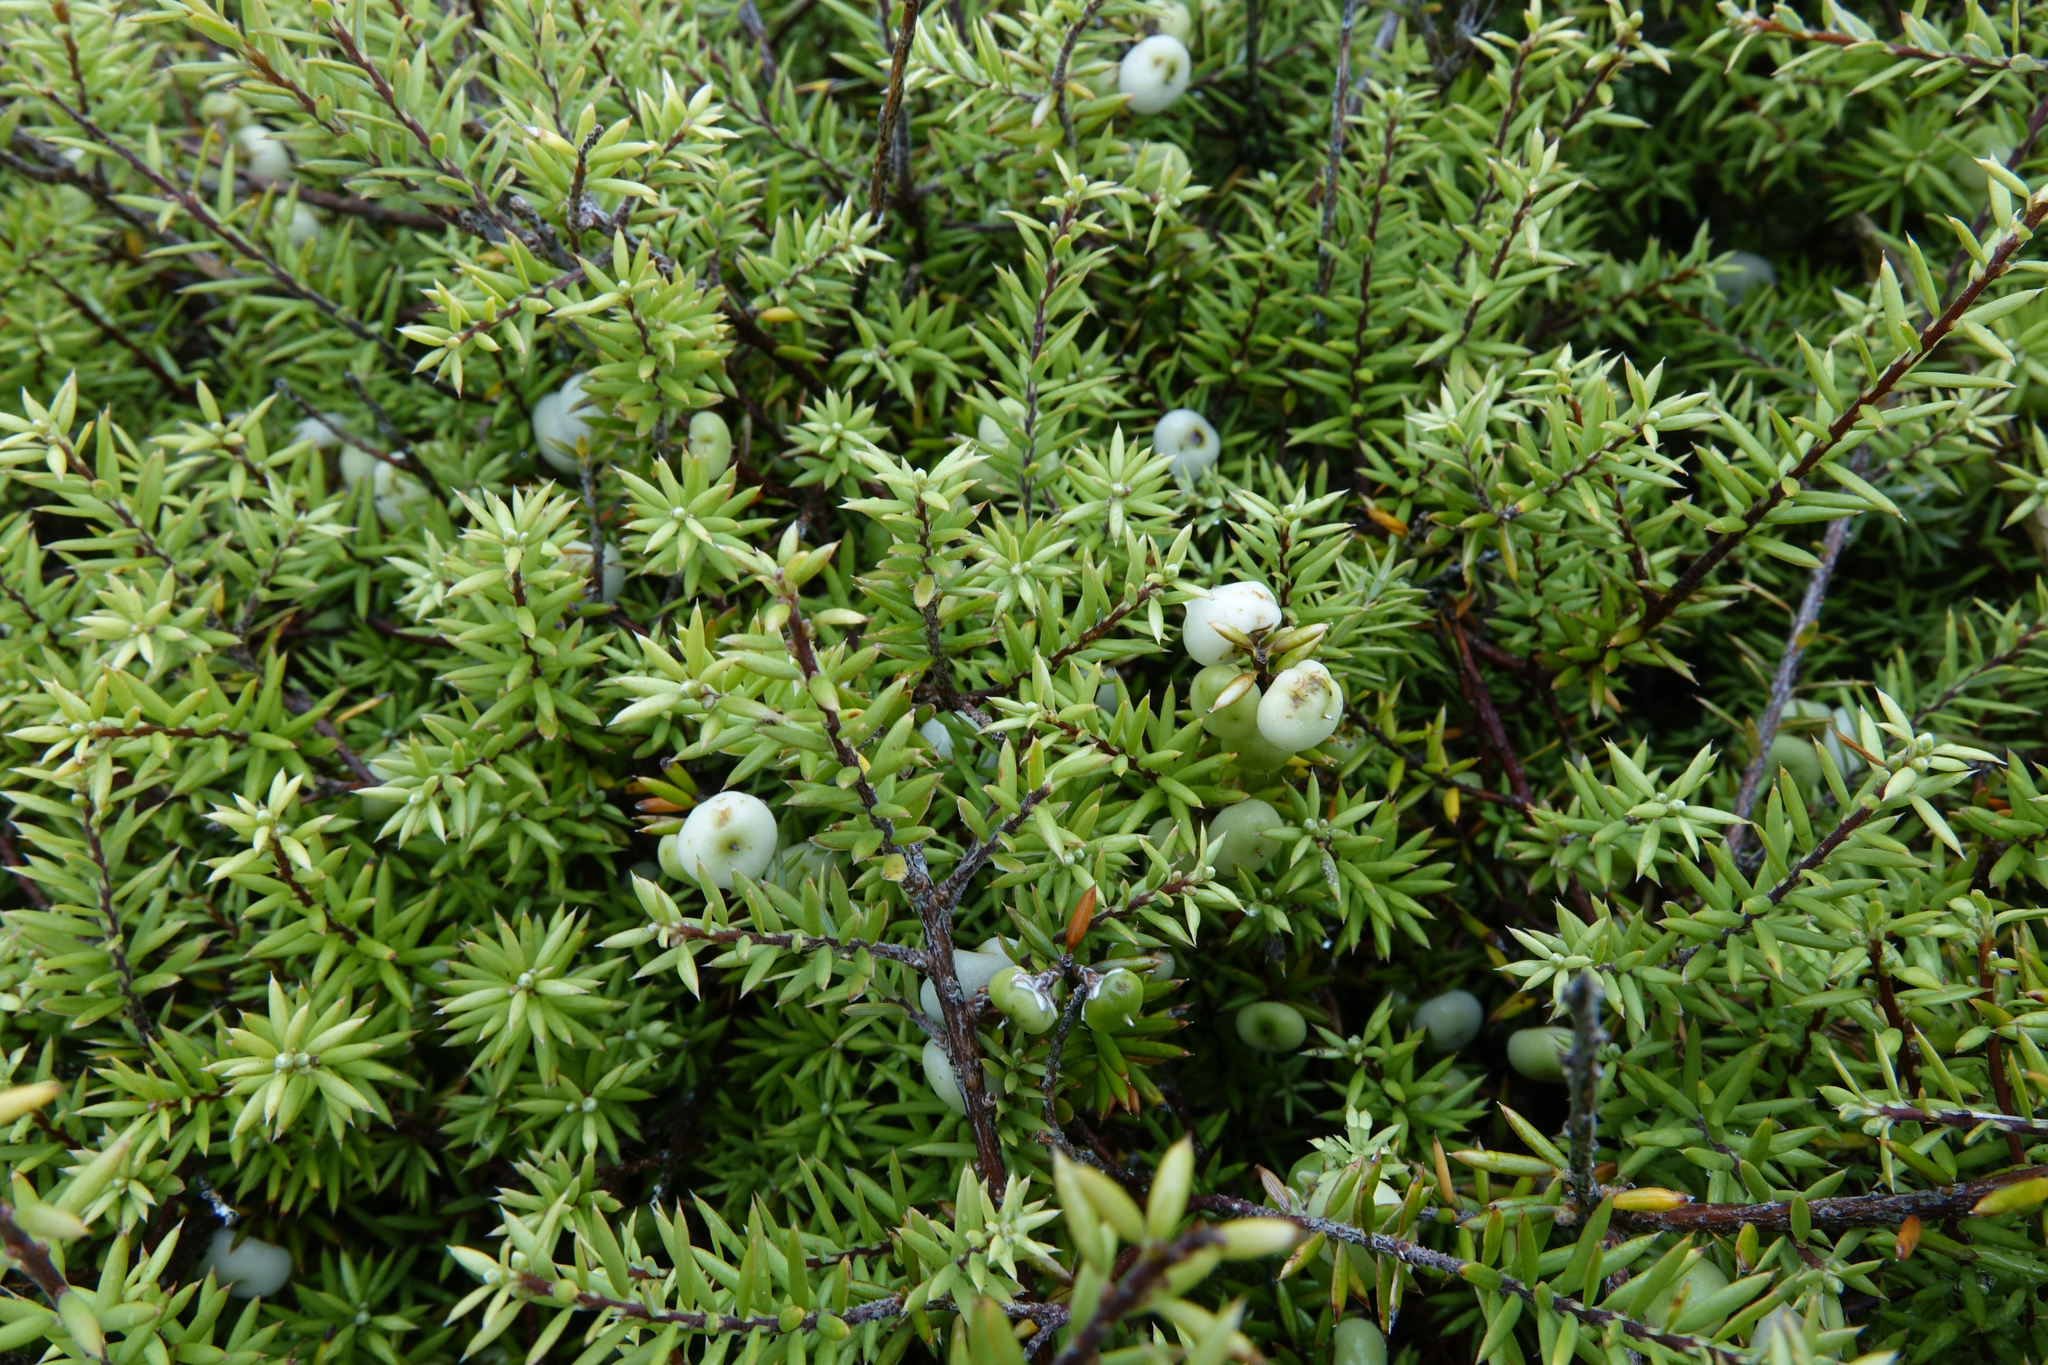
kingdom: Plantae
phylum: Tracheophyta
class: Magnoliopsida
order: Ericales
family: Ericaceae
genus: Leptecophylla
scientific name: Leptecophylla juniperina
